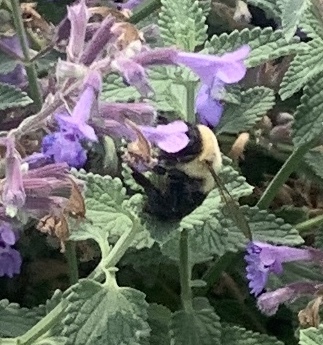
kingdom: Animalia
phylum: Arthropoda
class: Insecta
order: Hymenoptera
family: Apidae
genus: Bombus
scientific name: Bombus impatiens
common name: Common eastern bumble bee
